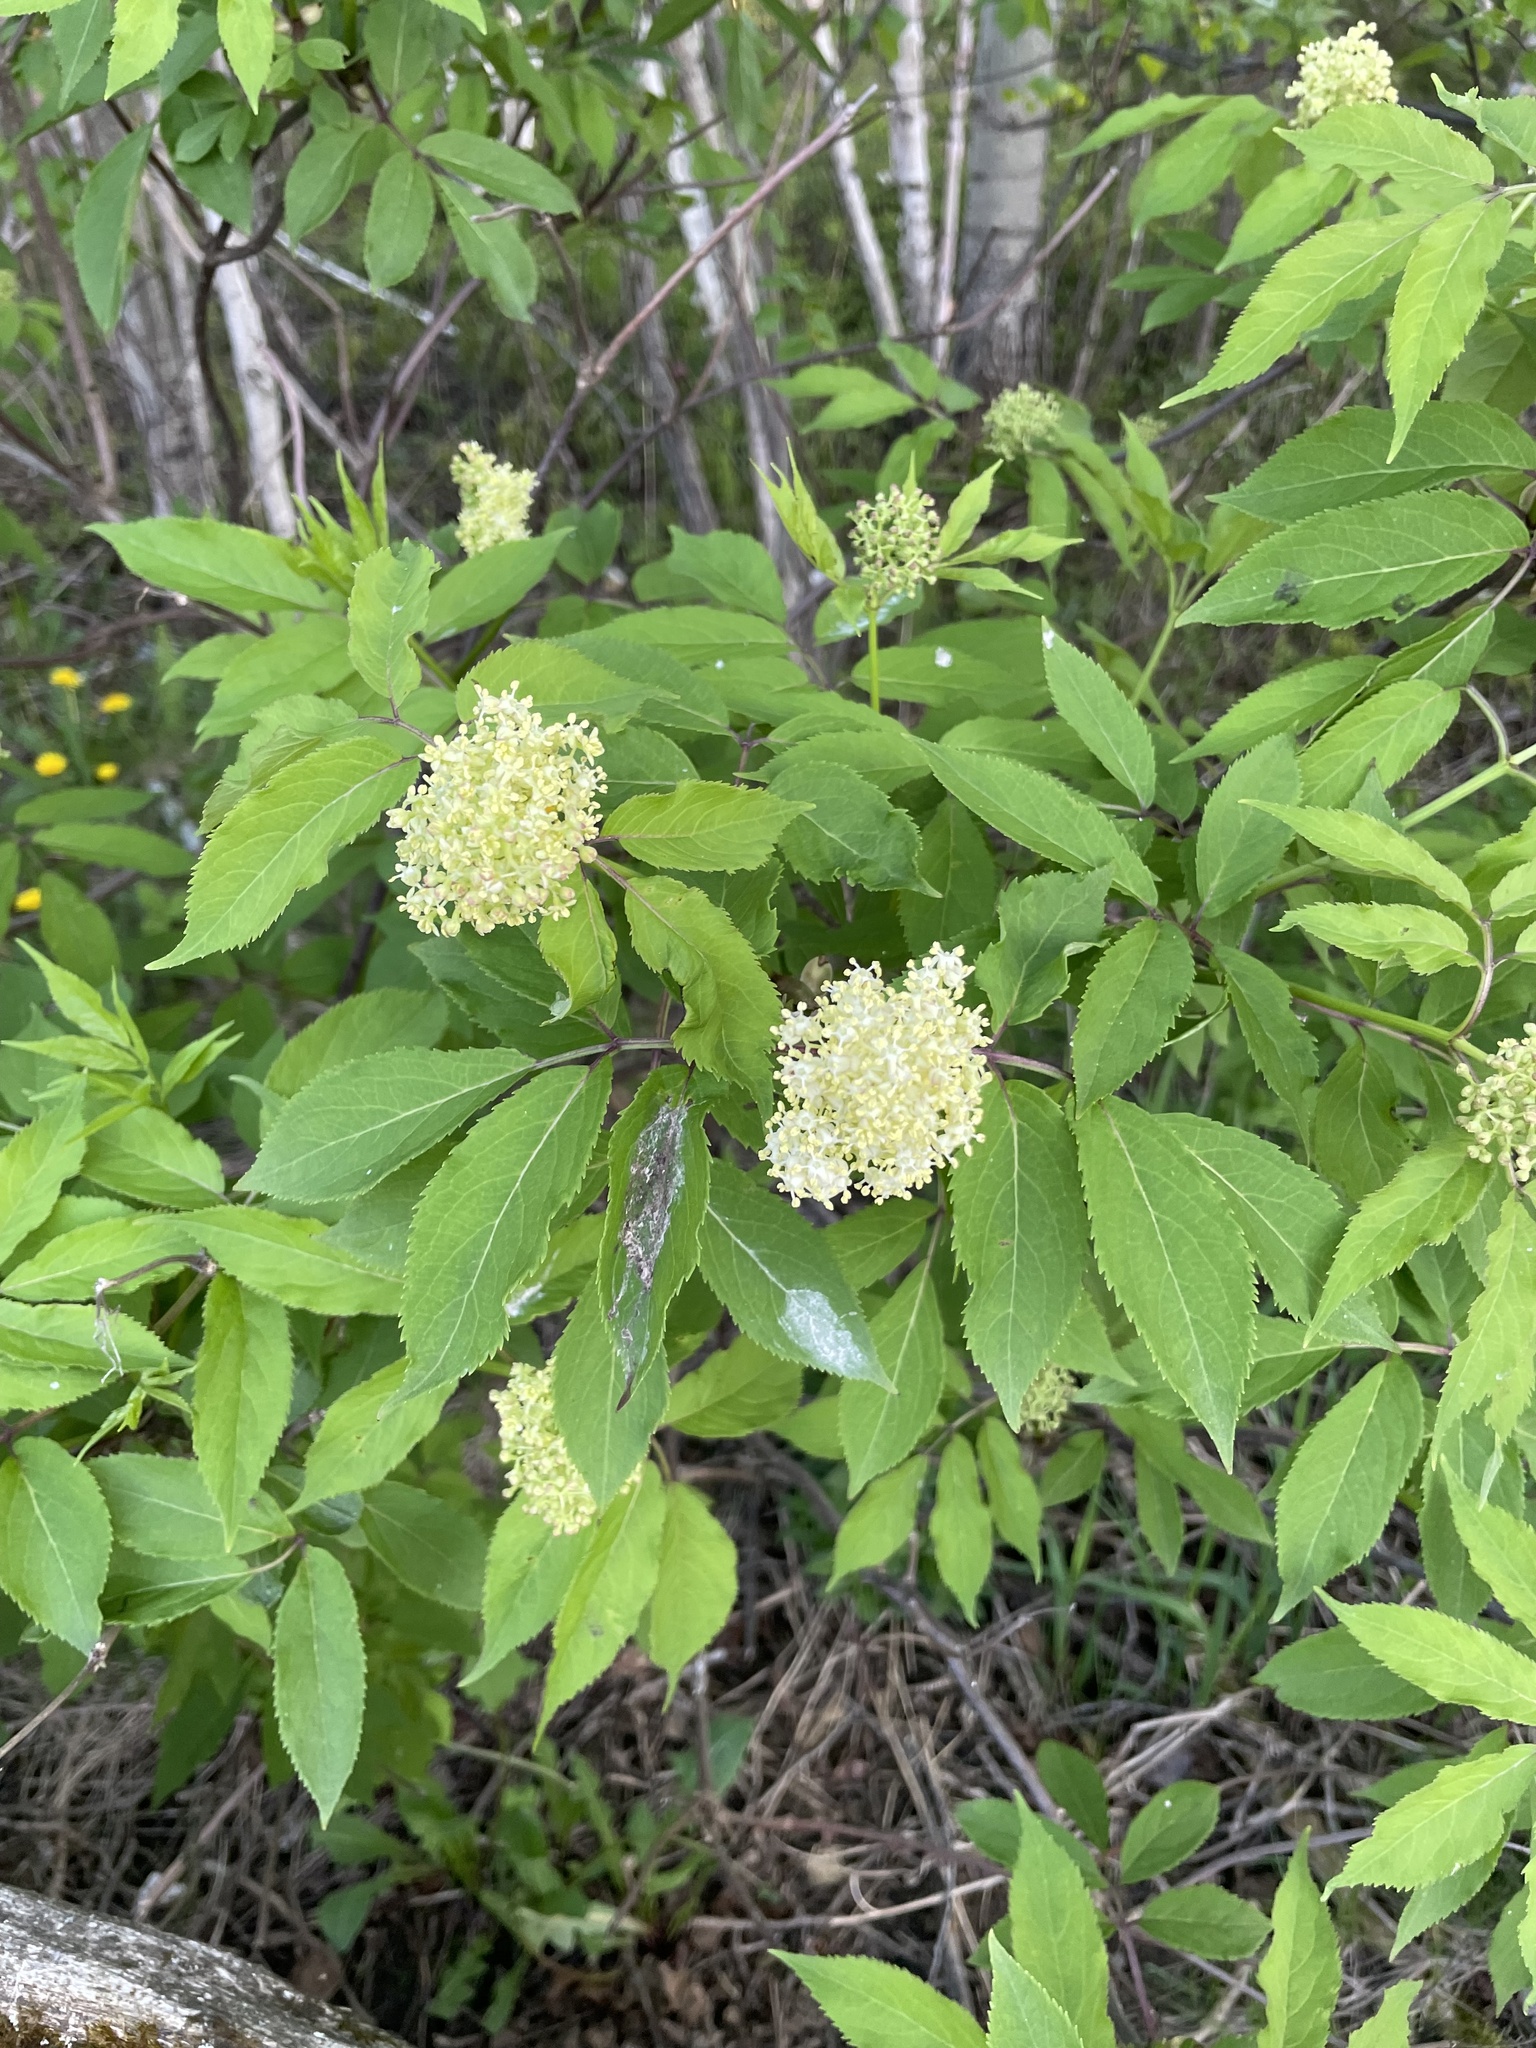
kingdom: Plantae
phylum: Tracheophyta
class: Magnoliopsida
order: Dipsacales
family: Viburnaceae
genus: Sambucus
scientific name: Sambucus racemosa
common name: Red-berried elder
